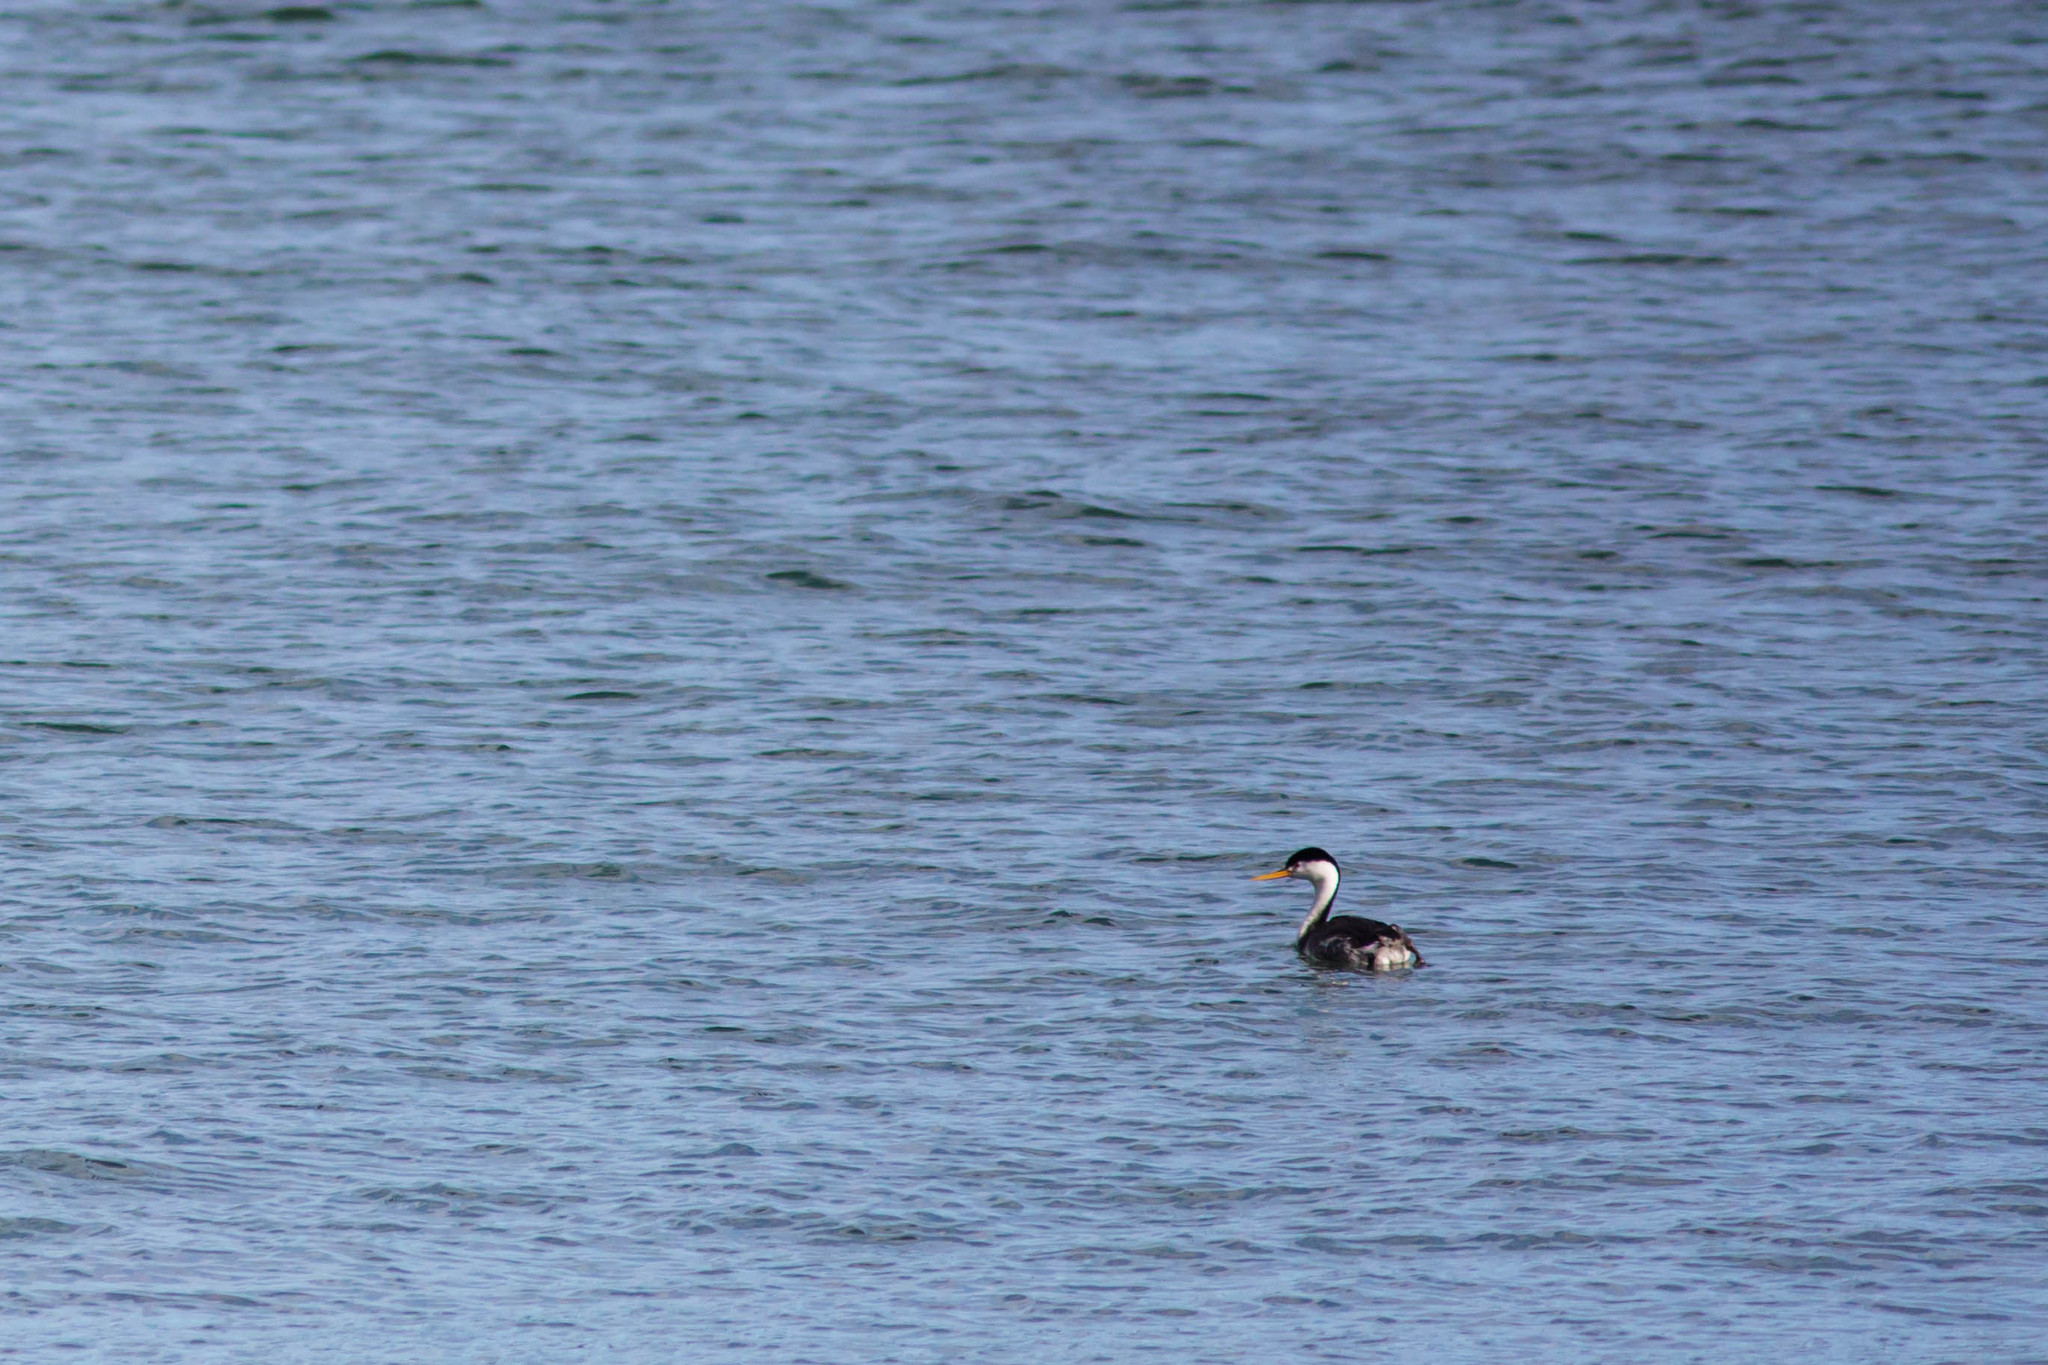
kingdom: Animalia
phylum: Chordata
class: Aves
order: Podicipediformes
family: Podicipedidae
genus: Aechmophorus
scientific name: Aechmophorus clarkii
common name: Clark's grebe
